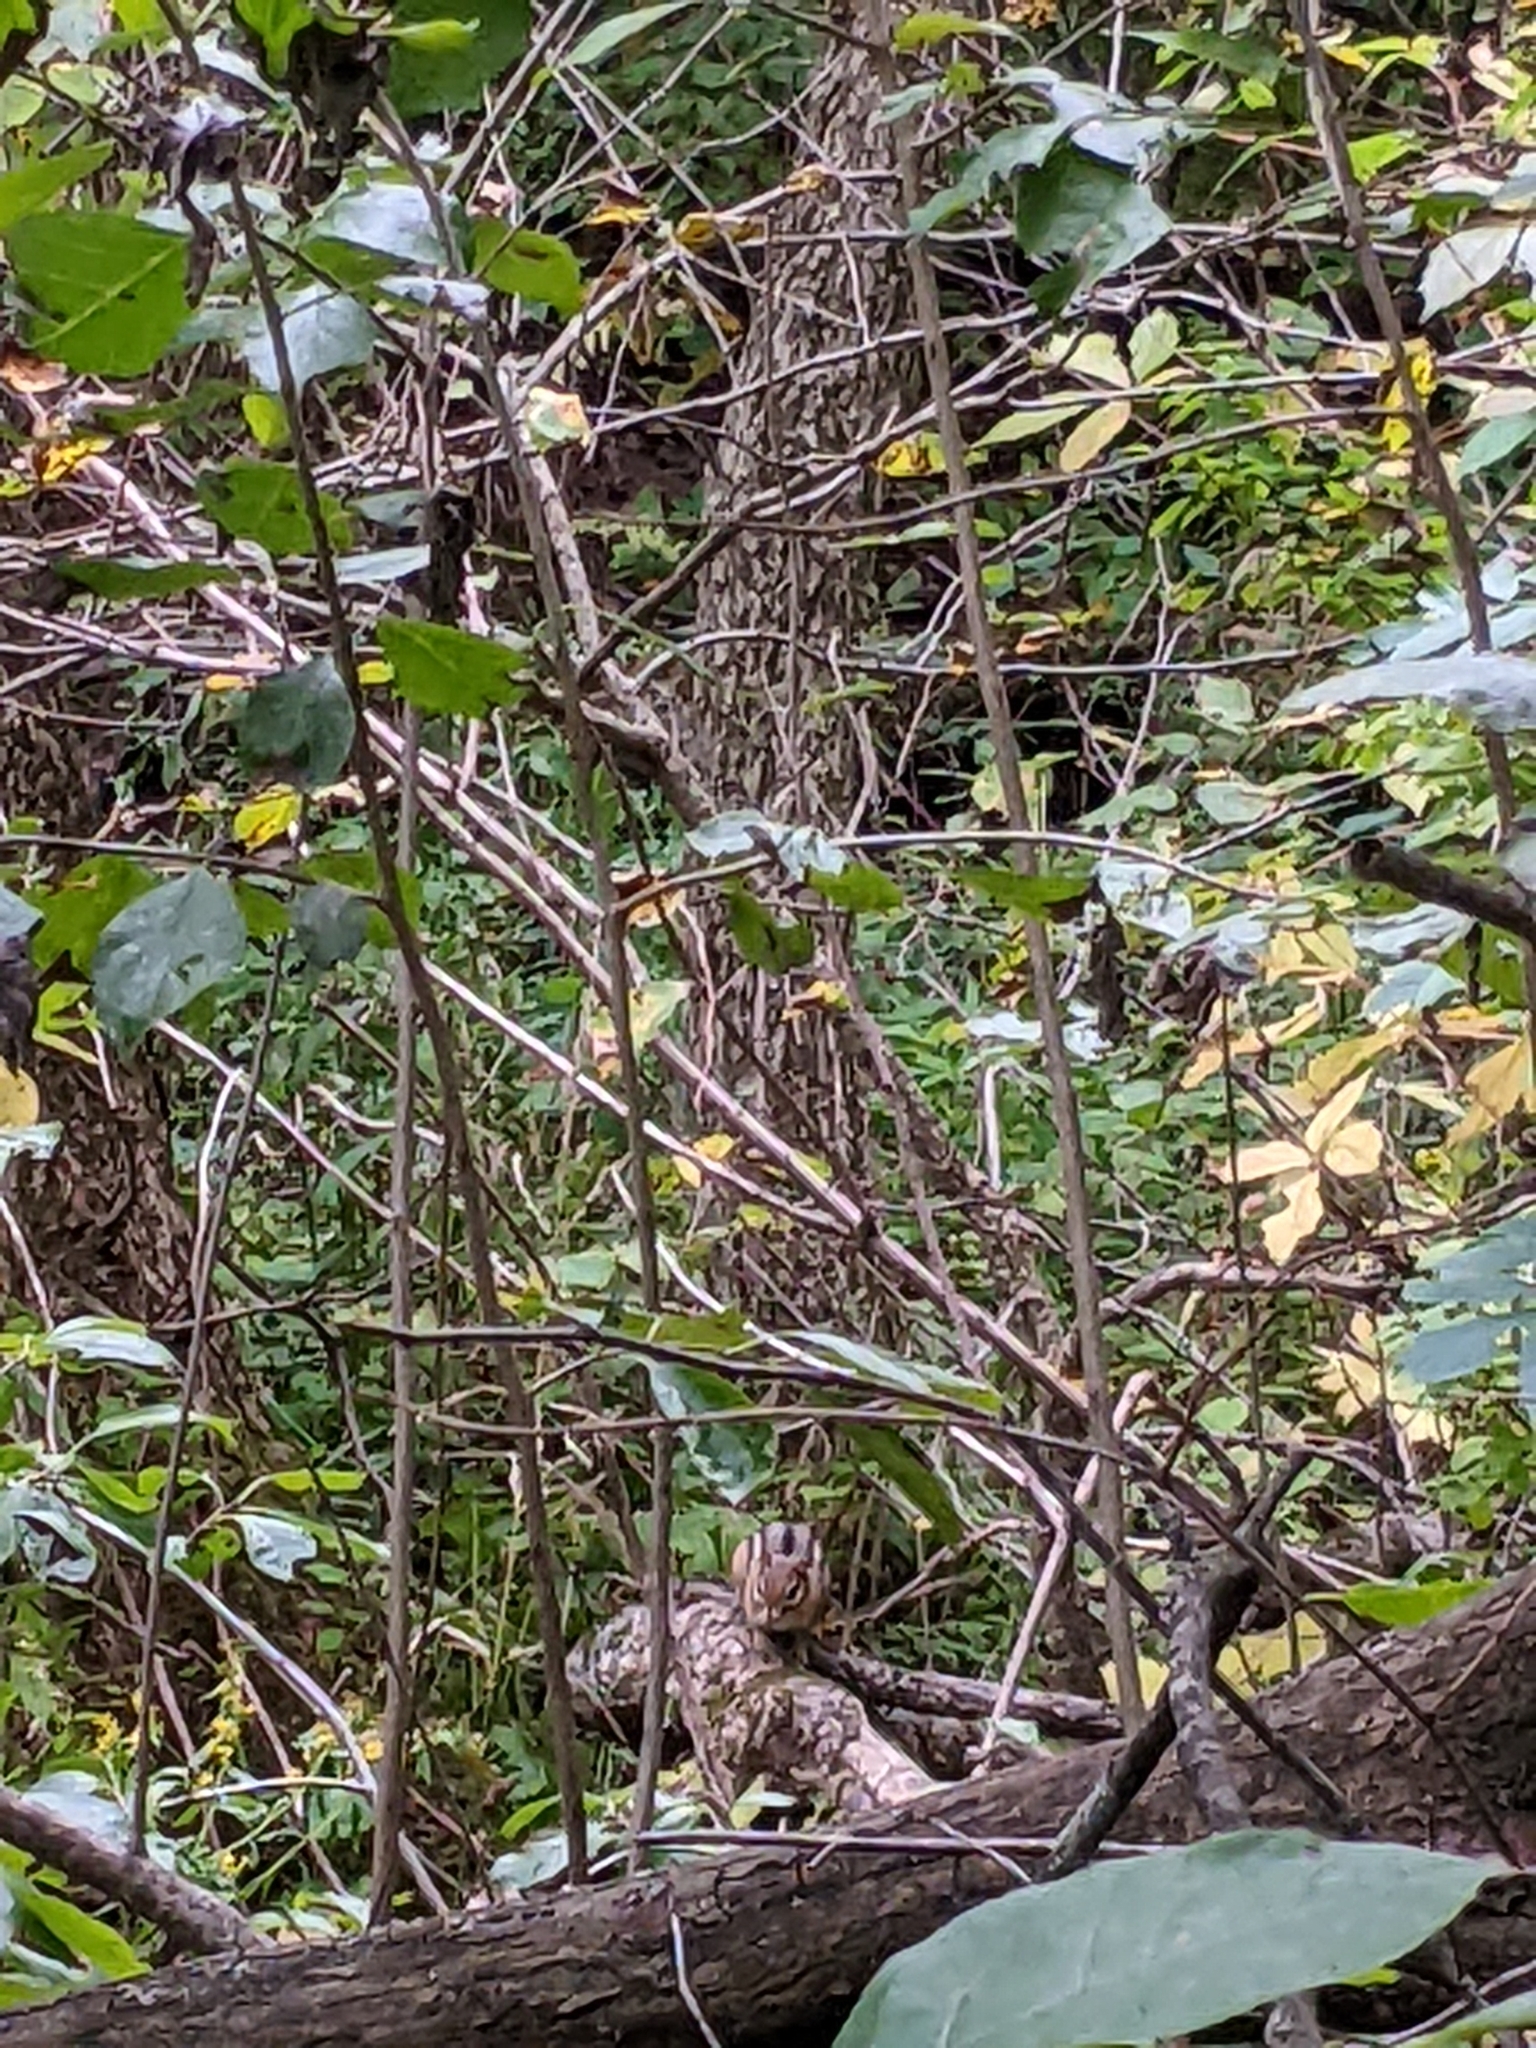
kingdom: Animalia
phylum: Chordata
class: Mammalia
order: Rodentia
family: Sciuridae
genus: Tamias
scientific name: Tamias striatus
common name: Eastern chipmunk
